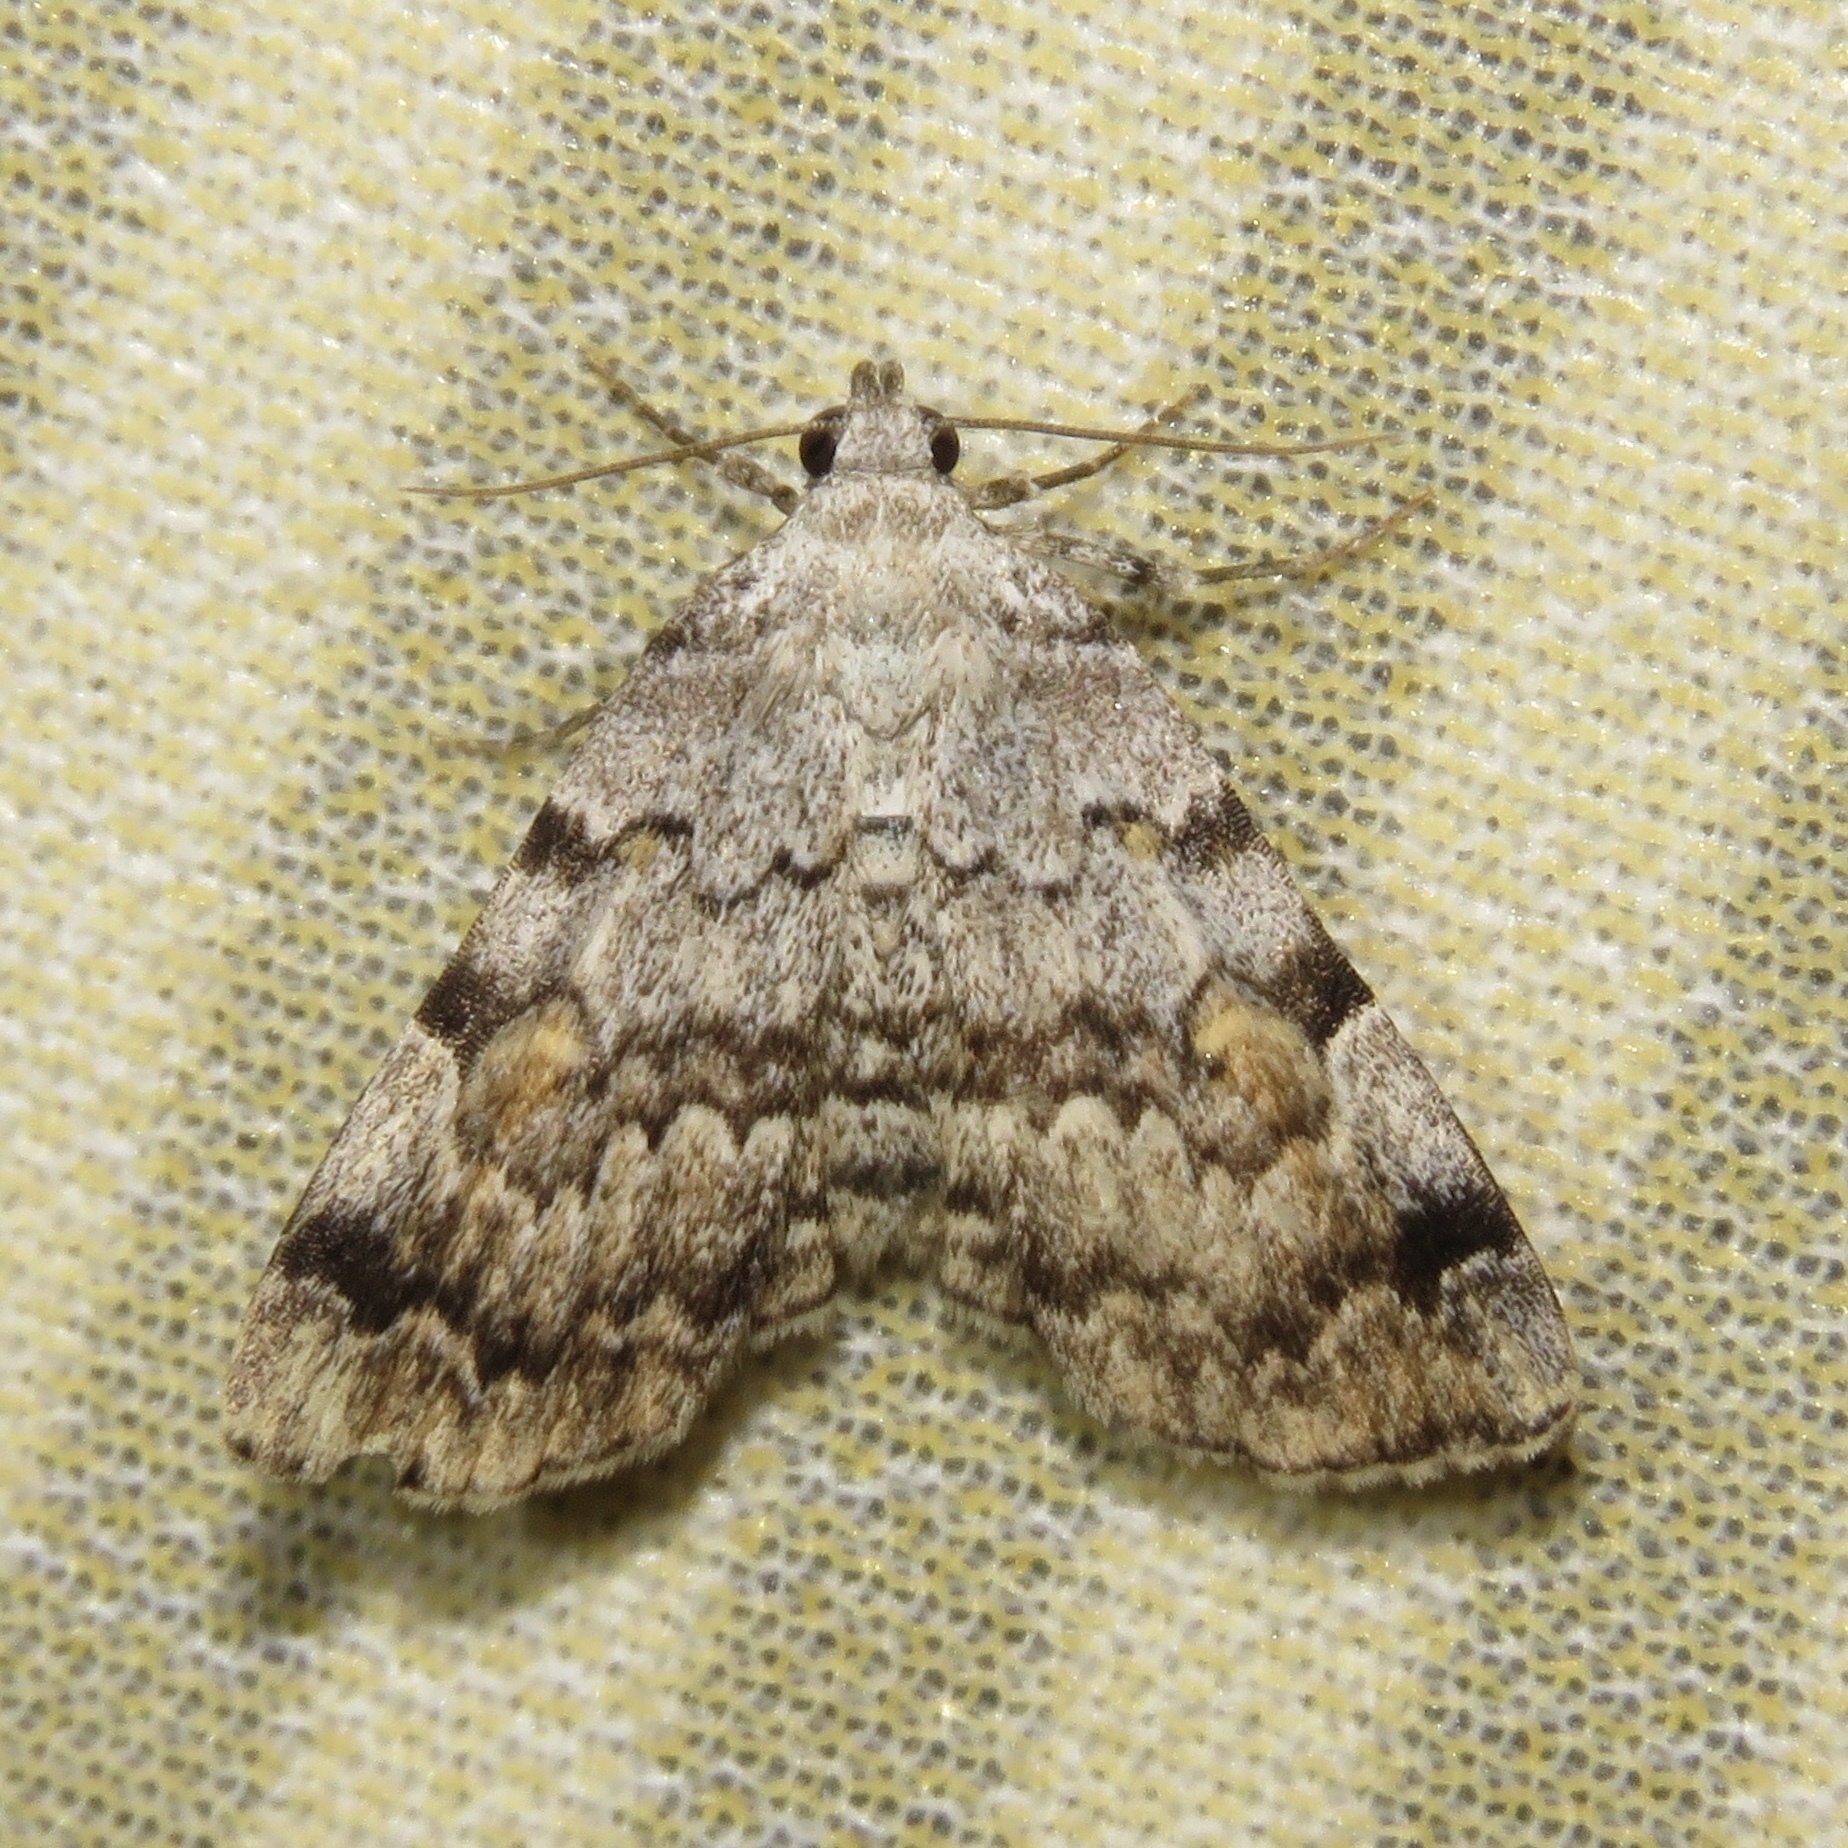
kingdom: Animalia
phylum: Arthropoda
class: Insecta
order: Lepidoptera
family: Erebidae
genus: Idia
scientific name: Idia americalis
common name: American idia moth
